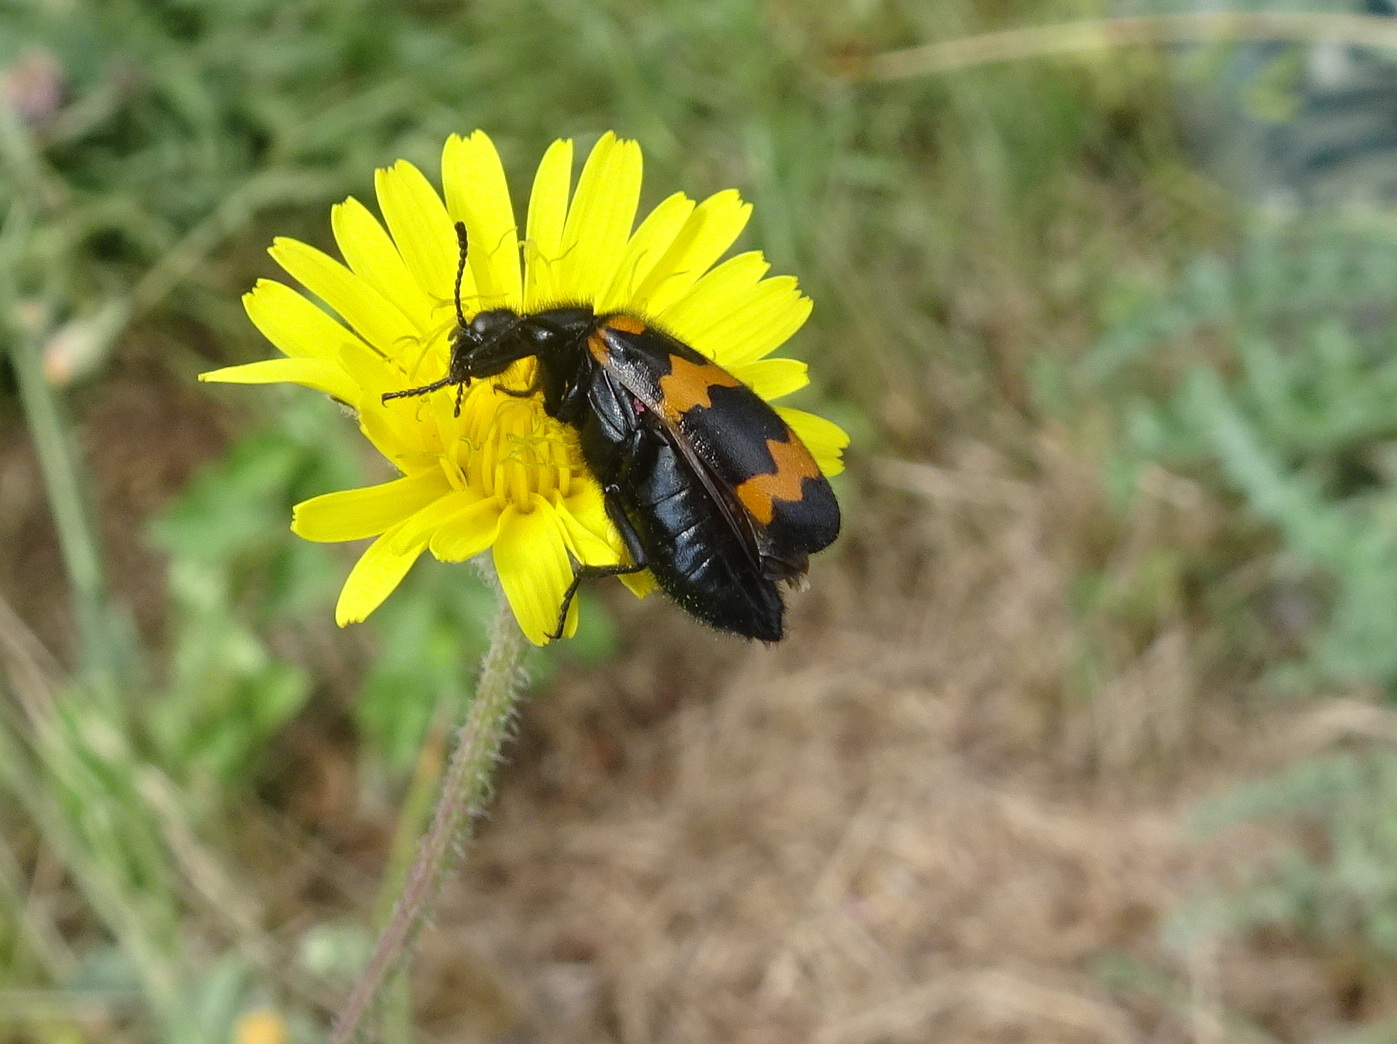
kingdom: Animalia
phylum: Arthropoda
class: Insecta
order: Coleoptera
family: Meloidae
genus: Mylabris
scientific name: Mylabris variabilis
